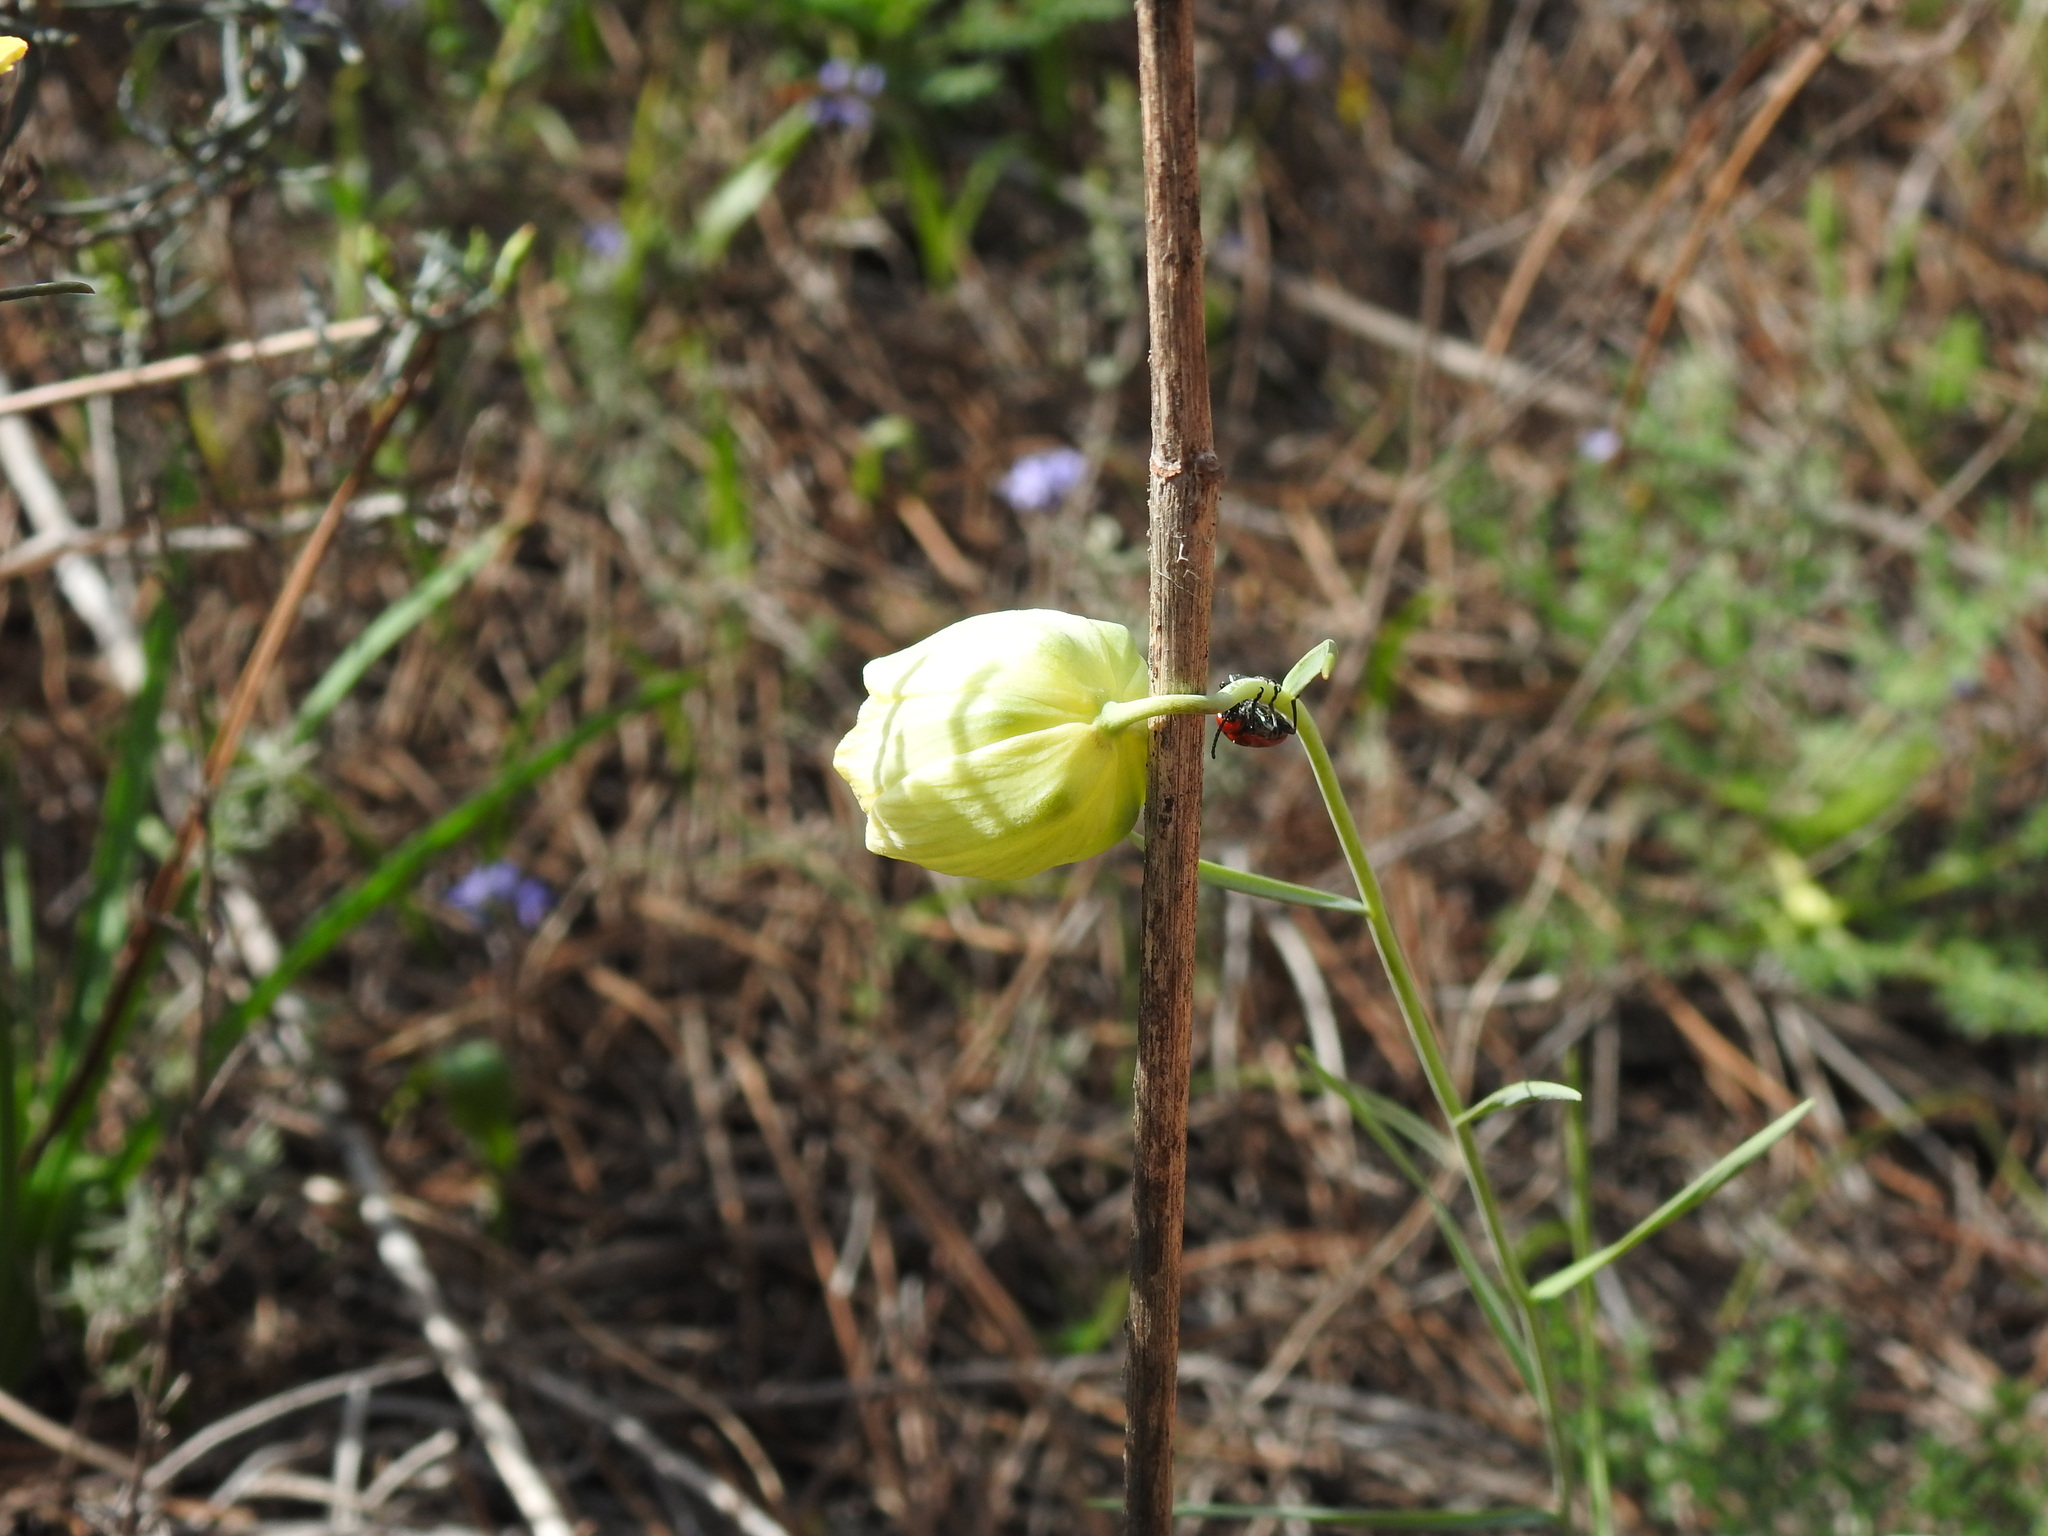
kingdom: Plantae
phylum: Tracheophyta
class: Liliopsida
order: Liliales
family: Liliaceae
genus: Fritillaria
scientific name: Fritillaria lusitanica
